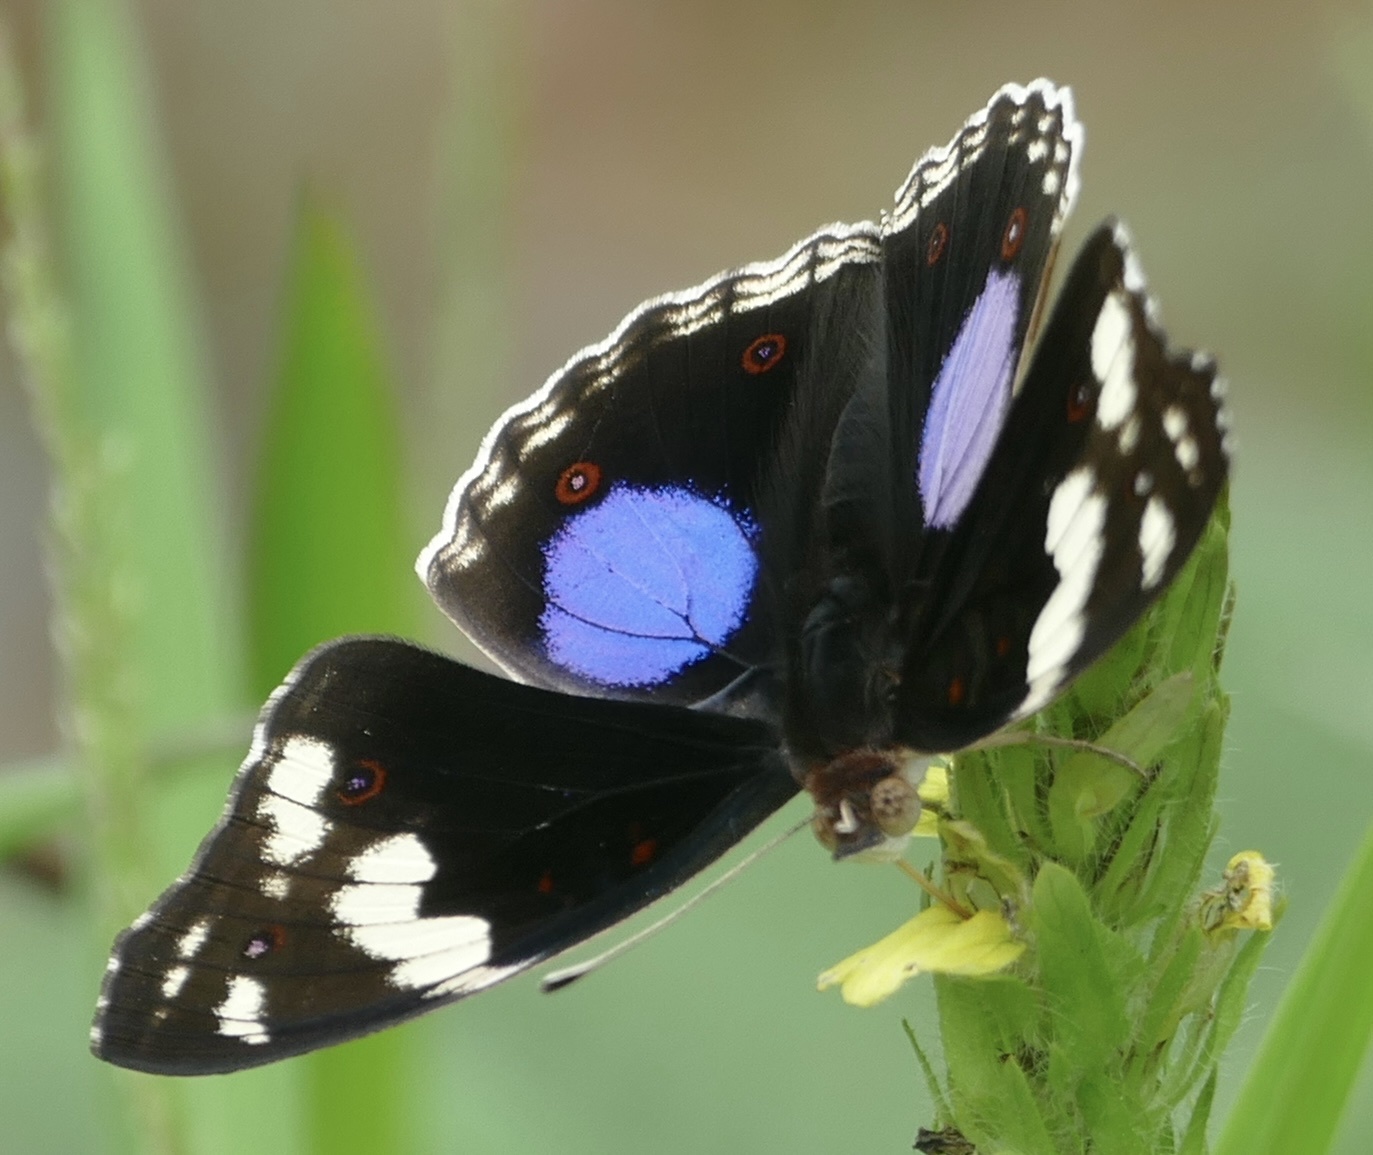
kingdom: Animalia
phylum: Arthropoda
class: Insecta
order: Lepidoptera
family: Nymphalidae
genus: Junonia
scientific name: Junonia oenone
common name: Dark blue pansy
